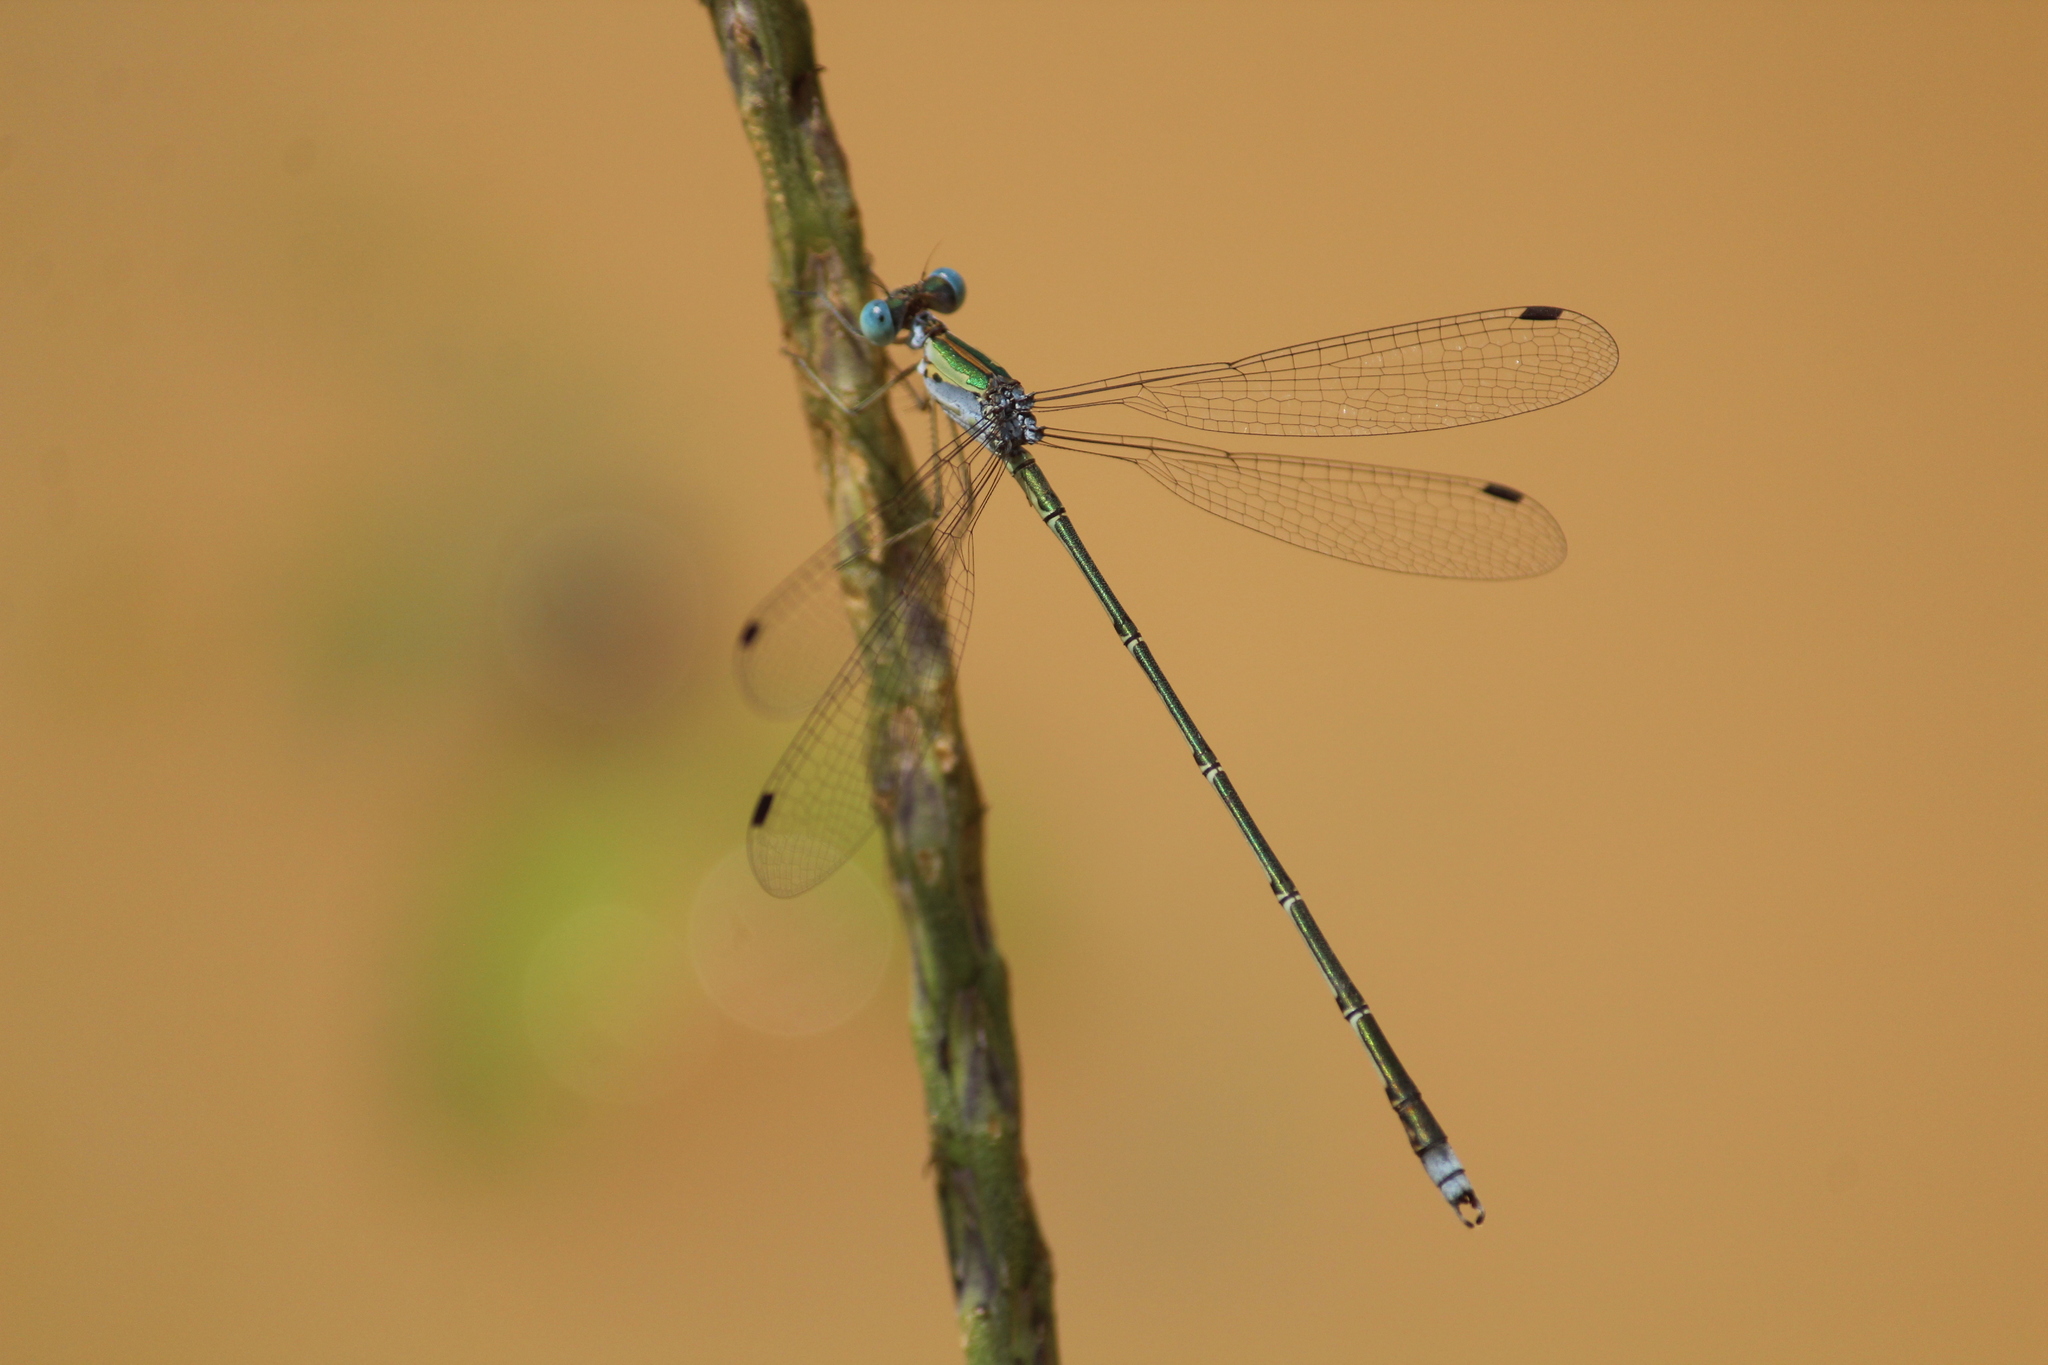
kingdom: Animalia
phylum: Arthropoda
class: Insecta
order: Odonata
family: Lestidae
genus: Lestes
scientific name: Lestes elatus
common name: Emerald spreadwing
